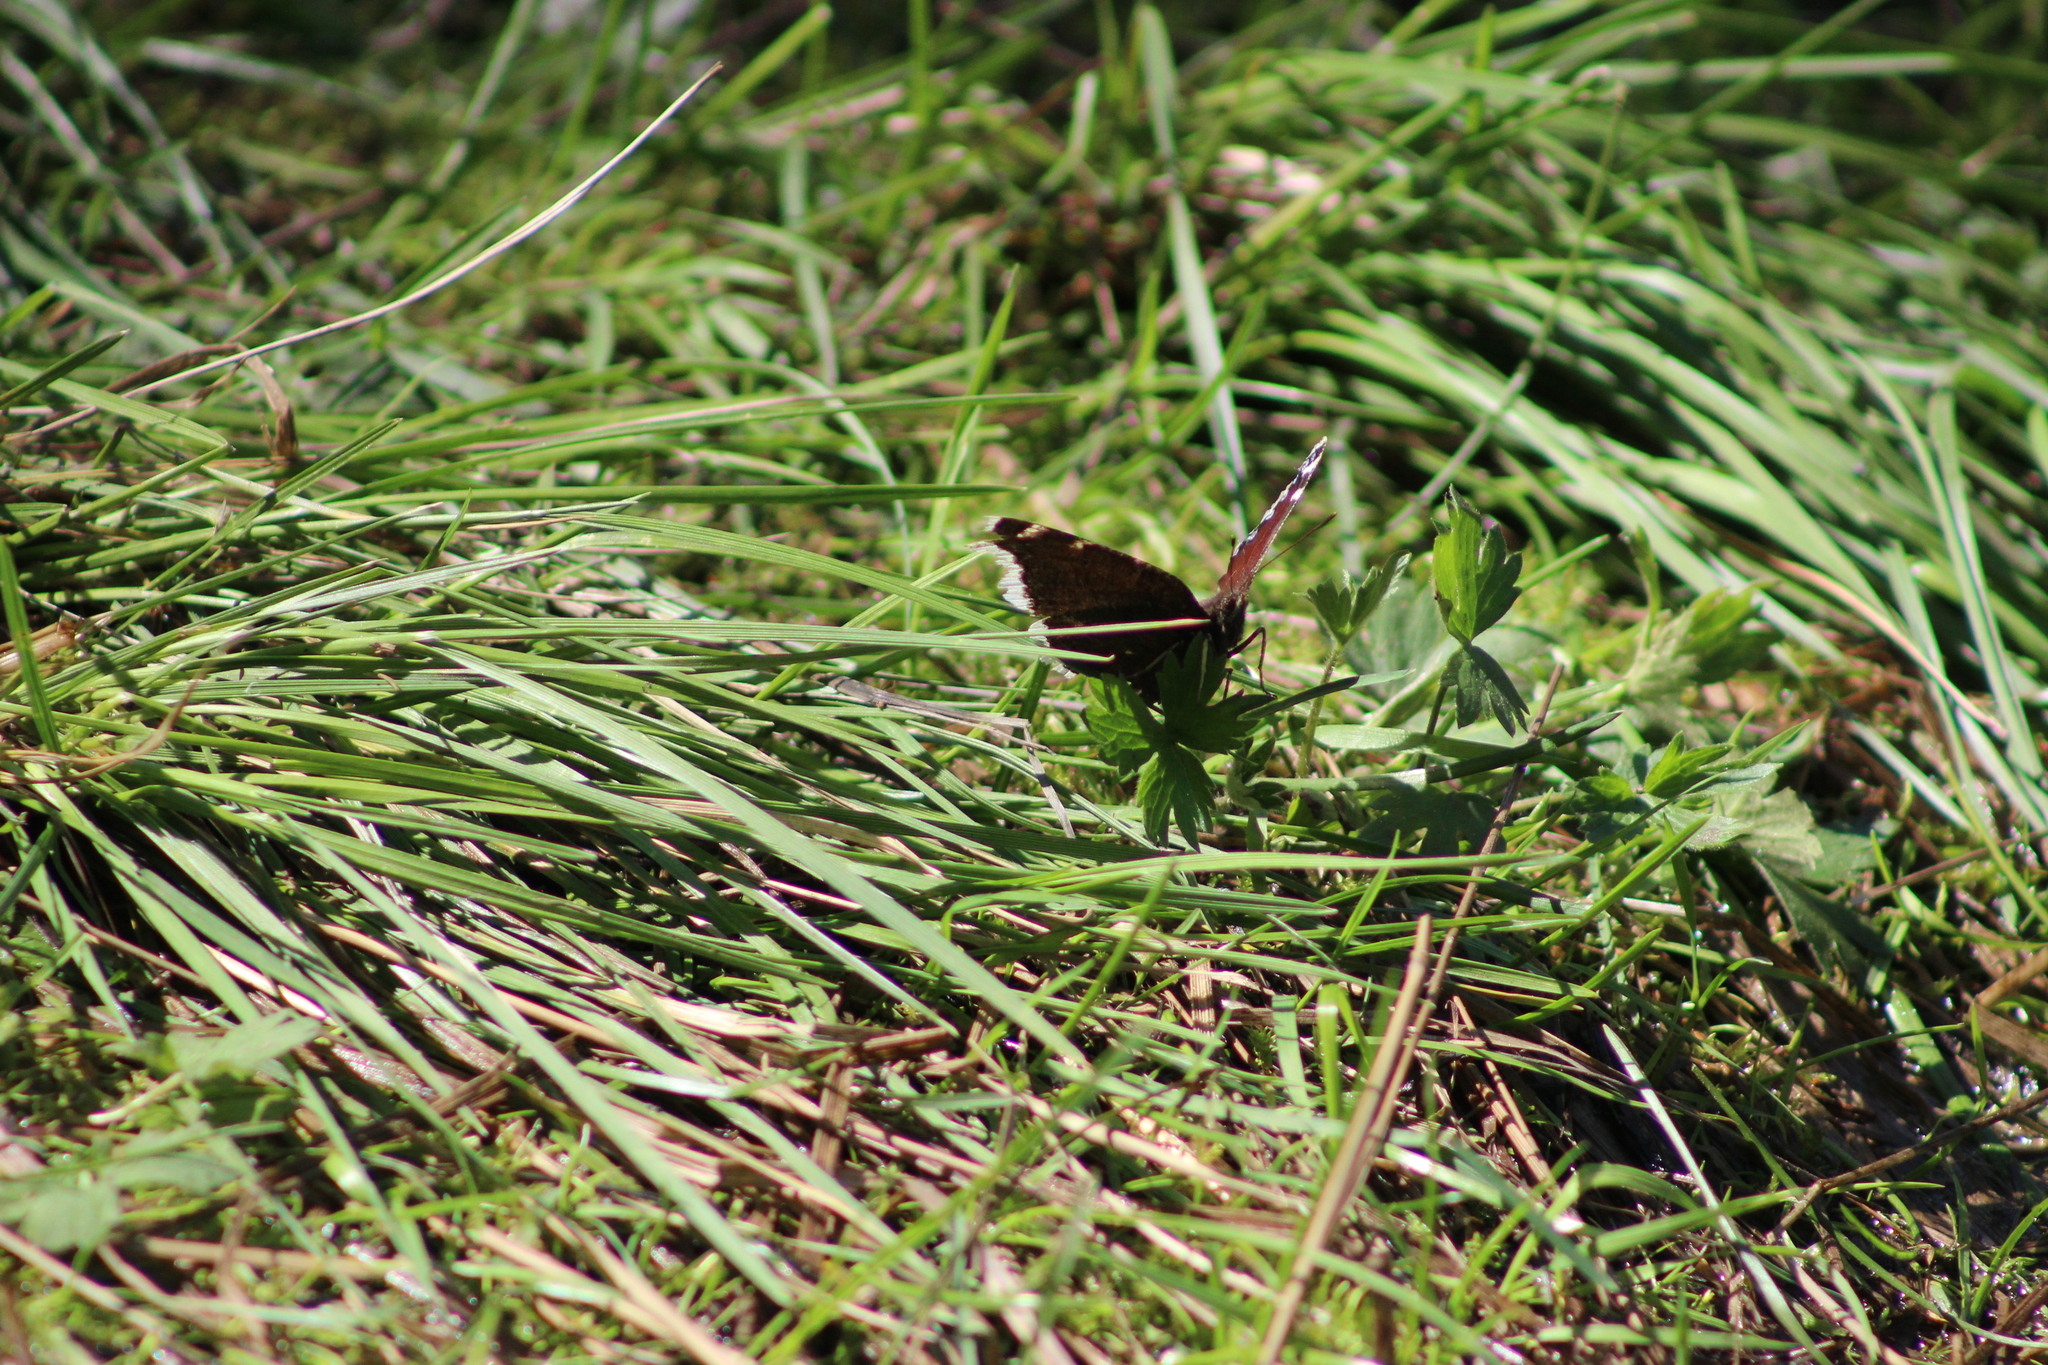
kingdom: Animalia
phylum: Arthropoda
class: Insecta
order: Lepidoptera
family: Nymphalidae
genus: Nymphalis
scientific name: Nymphalis antiopa
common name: Camberwell beauty
